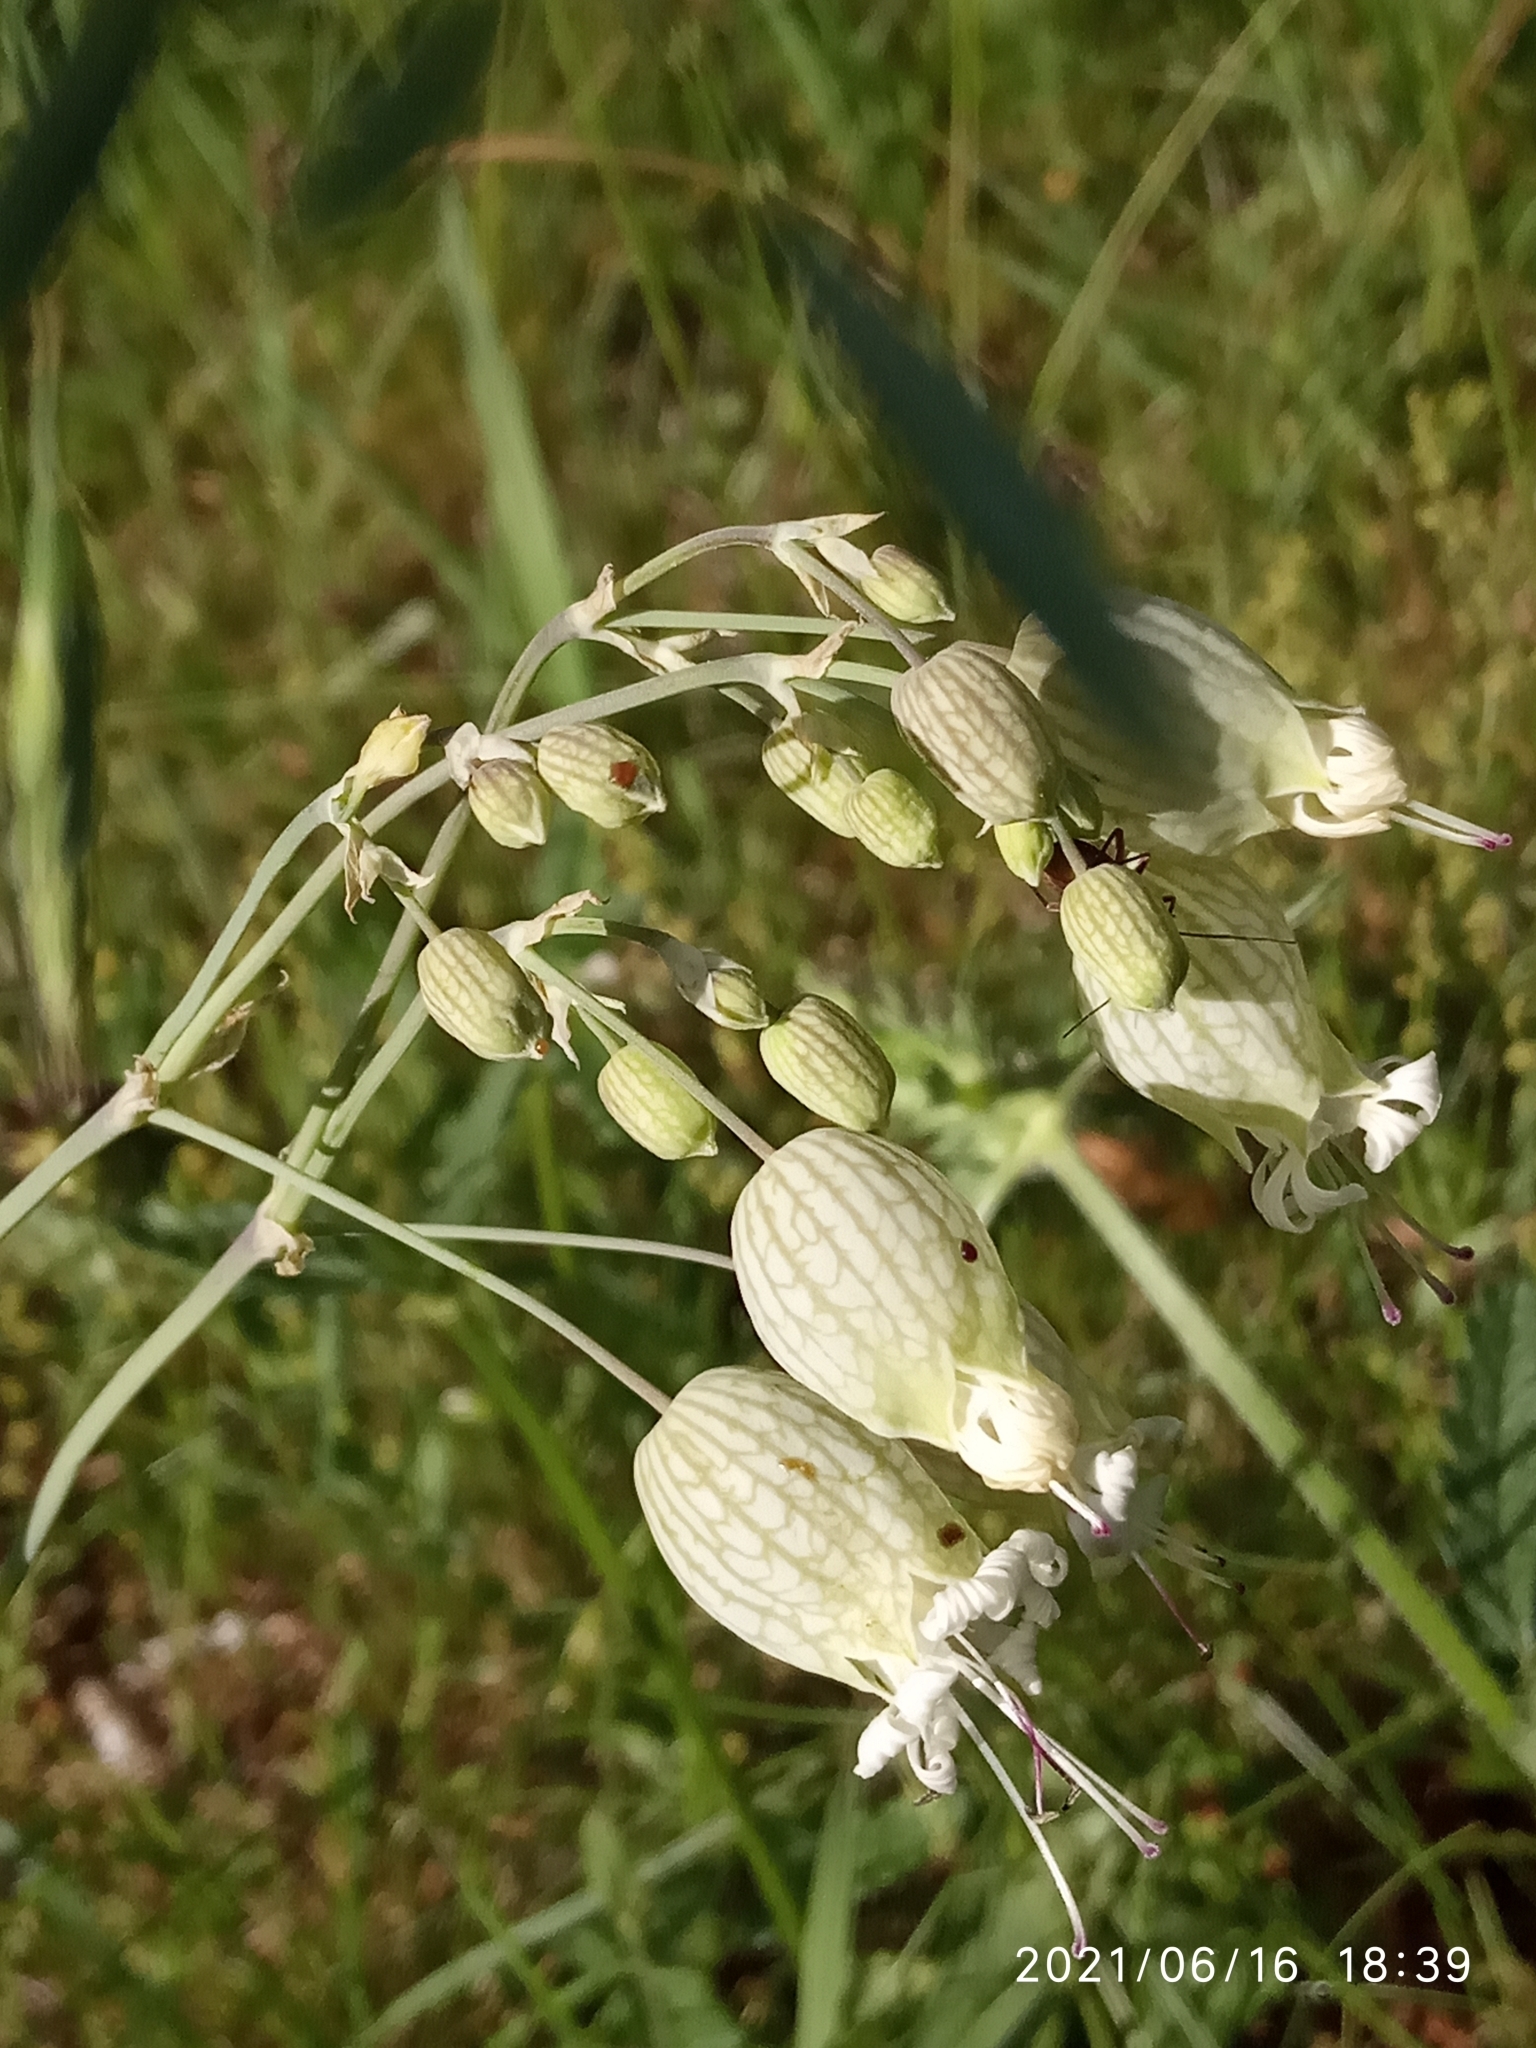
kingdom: Plantae
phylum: Tracheophyta
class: Magnoliopsida
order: Caryophyllales
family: Caryophyllaceae
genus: Silene
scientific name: Silene vulgaris
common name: Bladder campion
